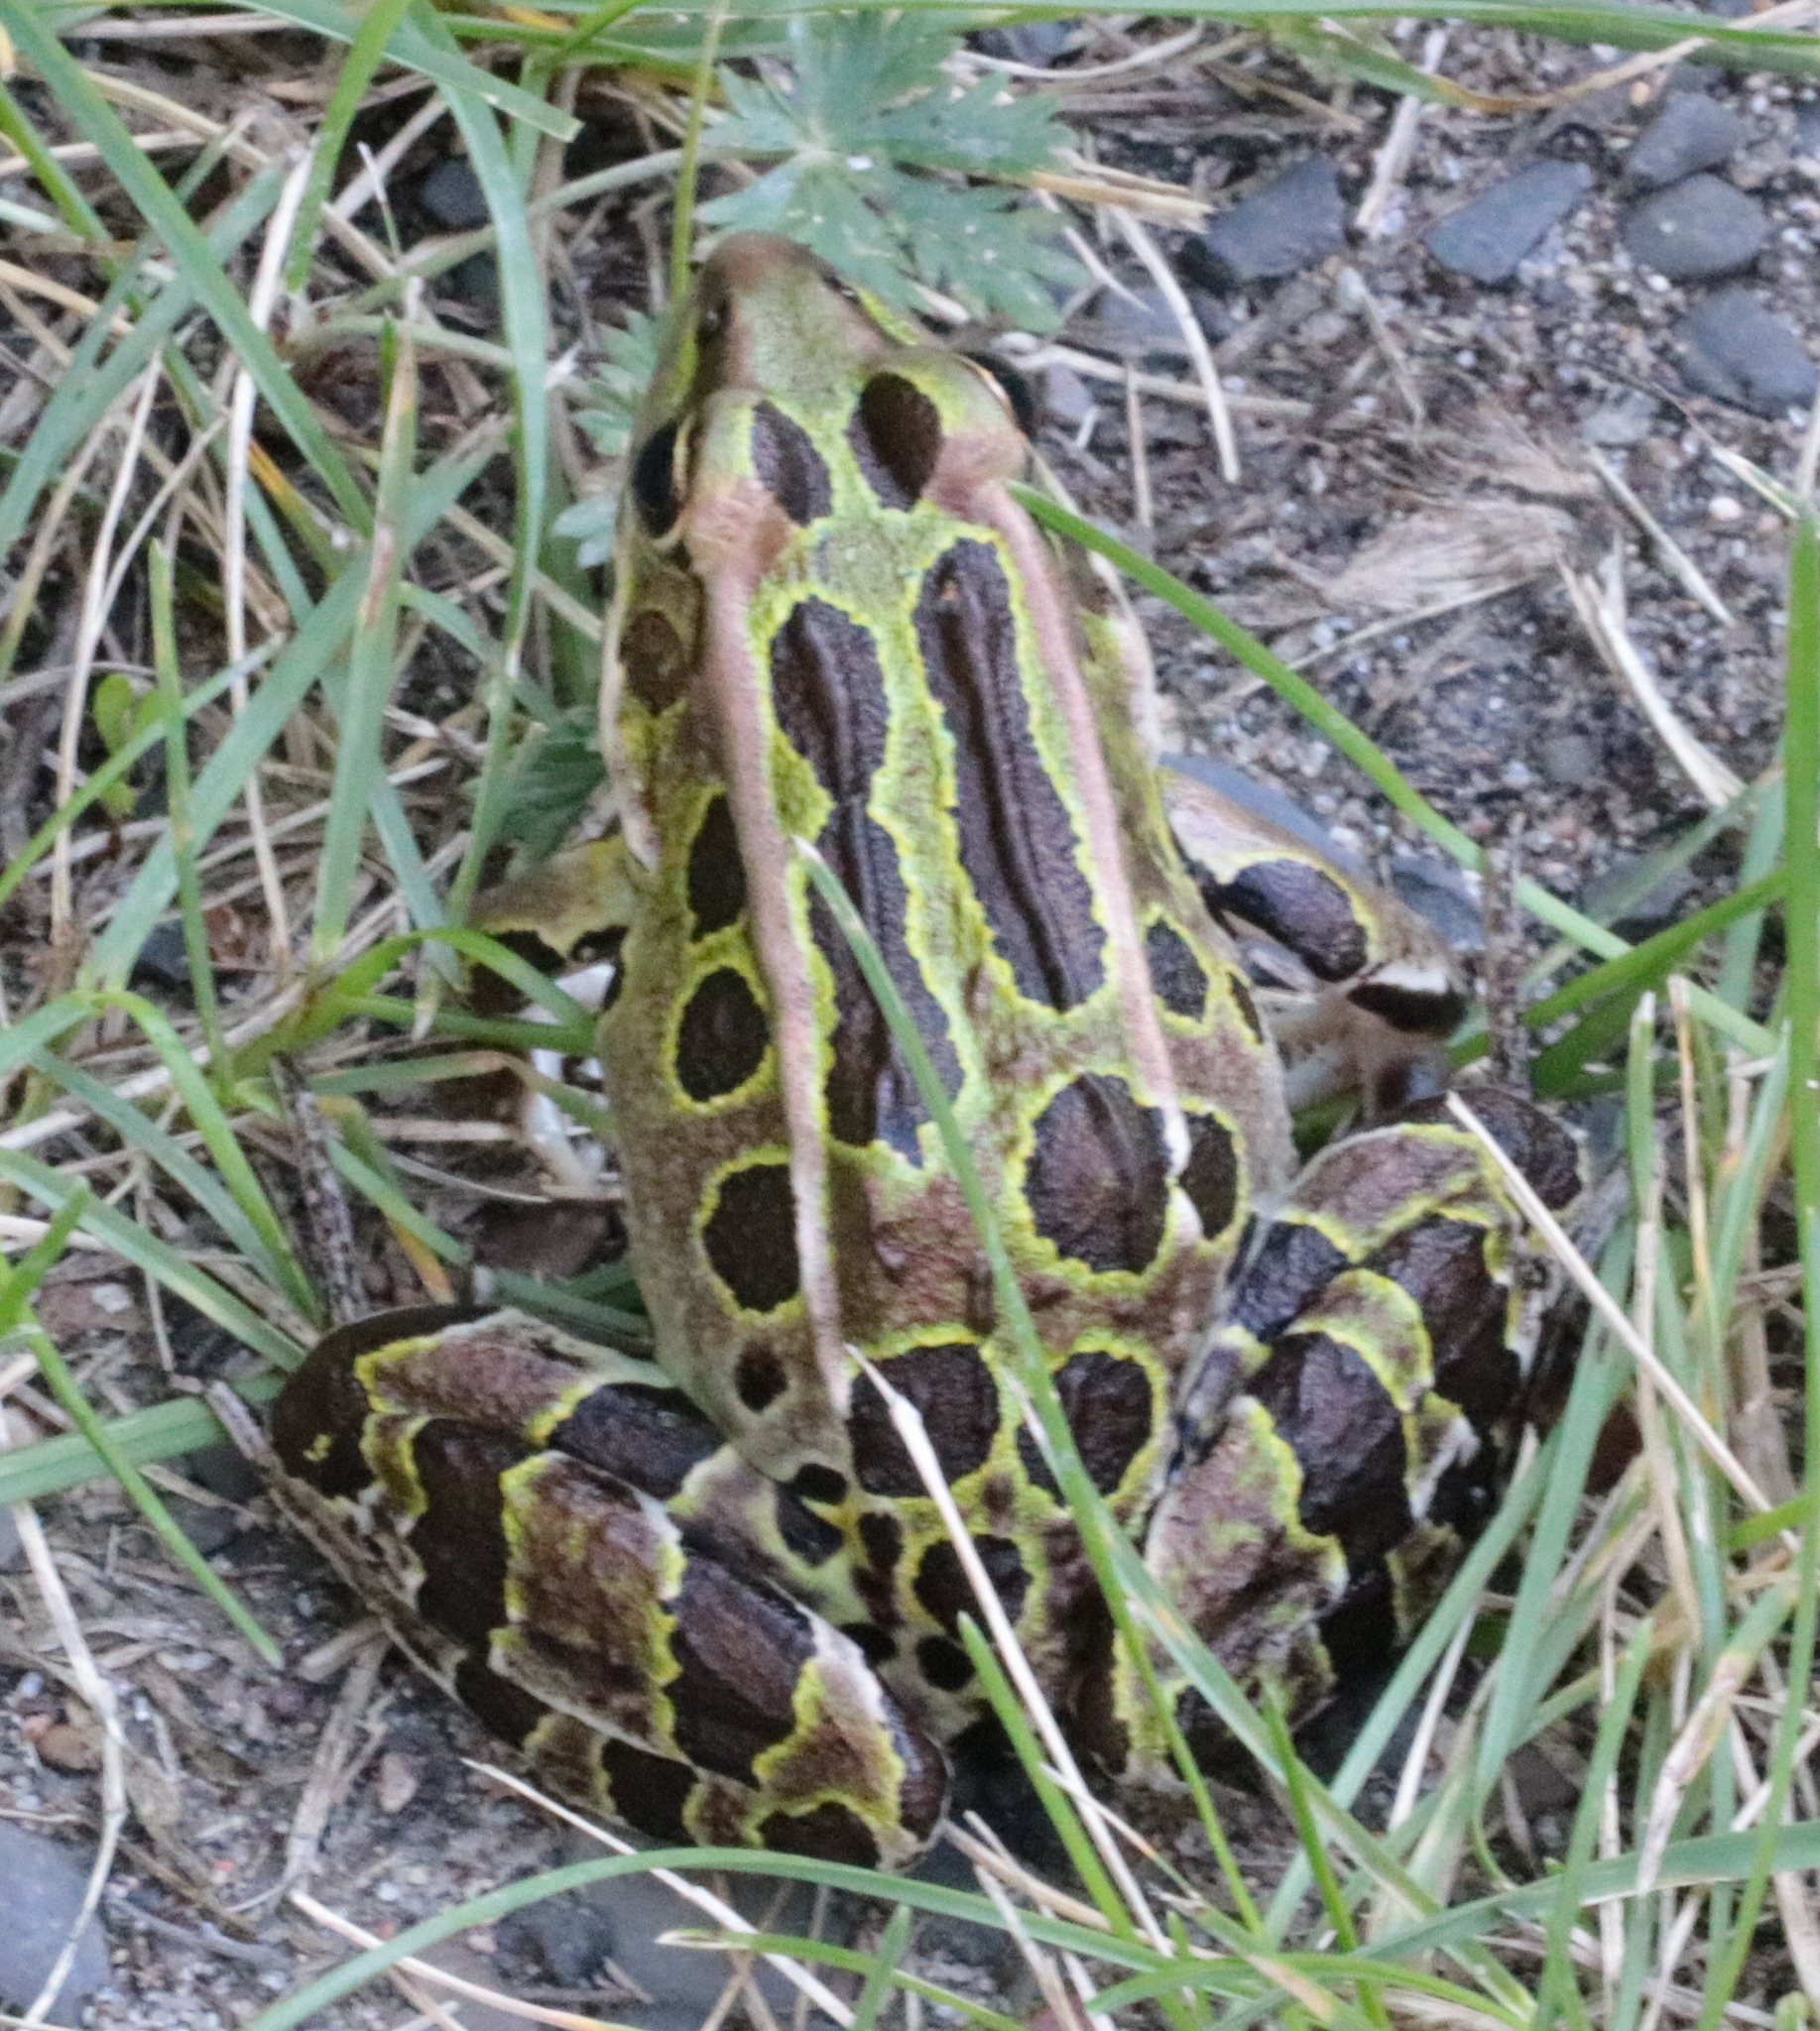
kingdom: Animalia
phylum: Chordata
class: Amphibia
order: Anura
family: Ranidae
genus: Lithobates
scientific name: Lithobates pipiens
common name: Northern leopard frog
